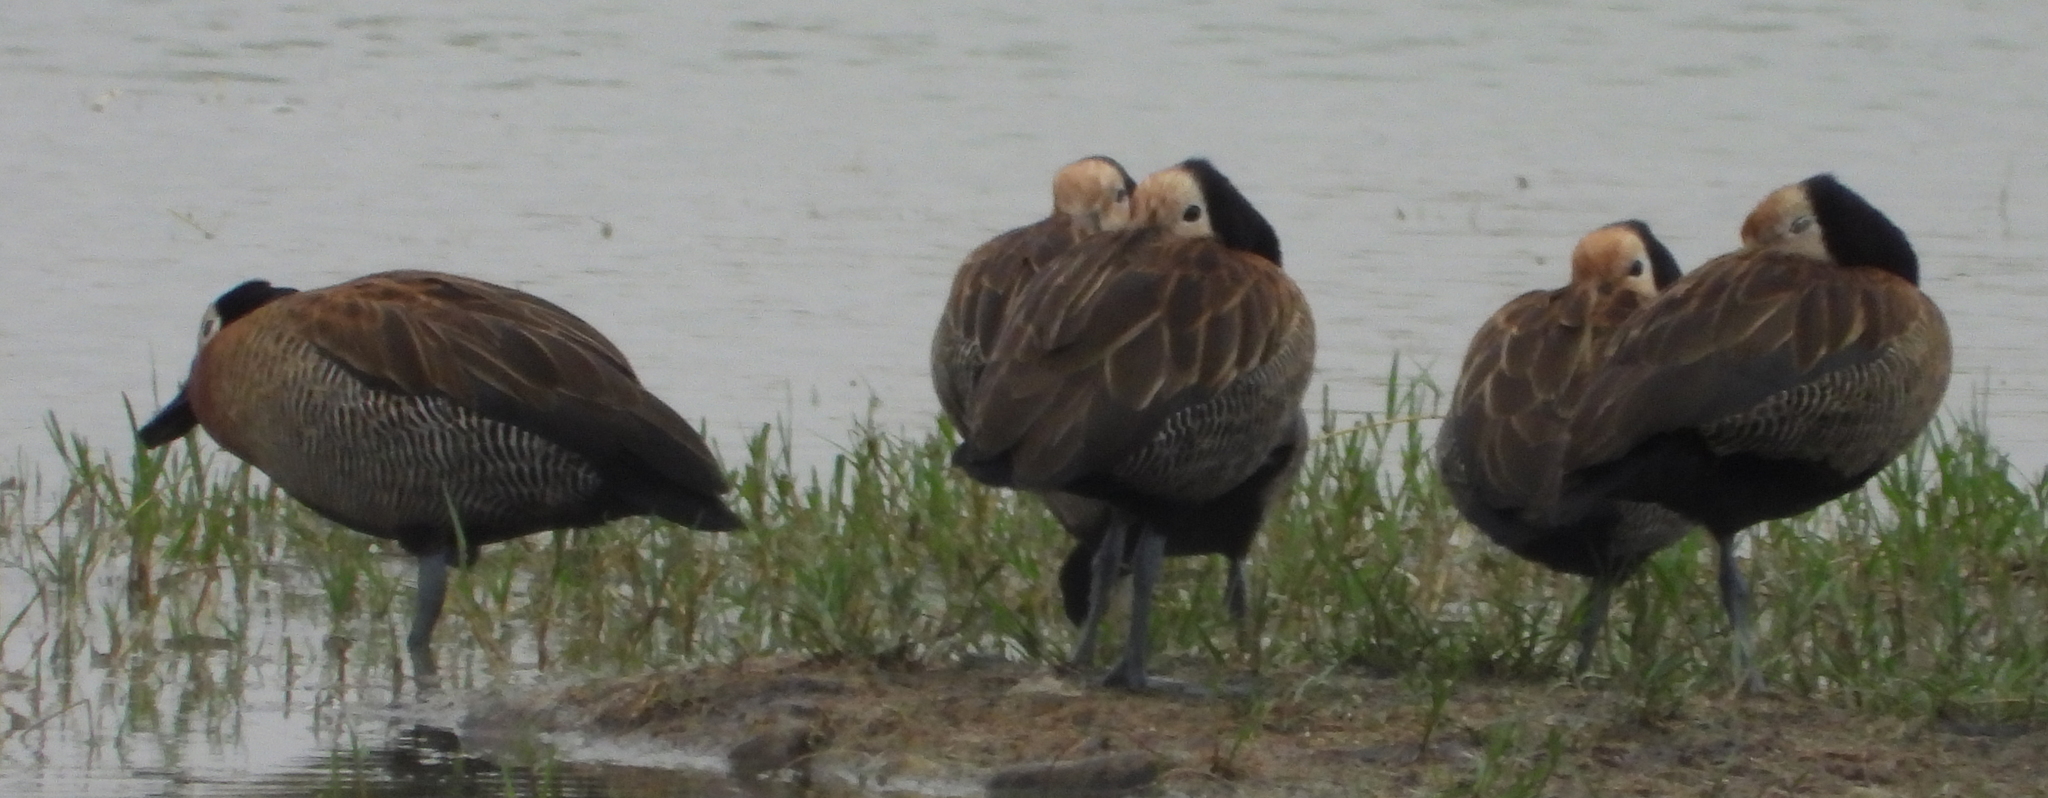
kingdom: Animalia
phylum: Chordata
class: Aves
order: Anseriformes
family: Anatidae
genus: Dendrocygna
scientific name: Dendrocygna viduata
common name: White-faced whistling duck
